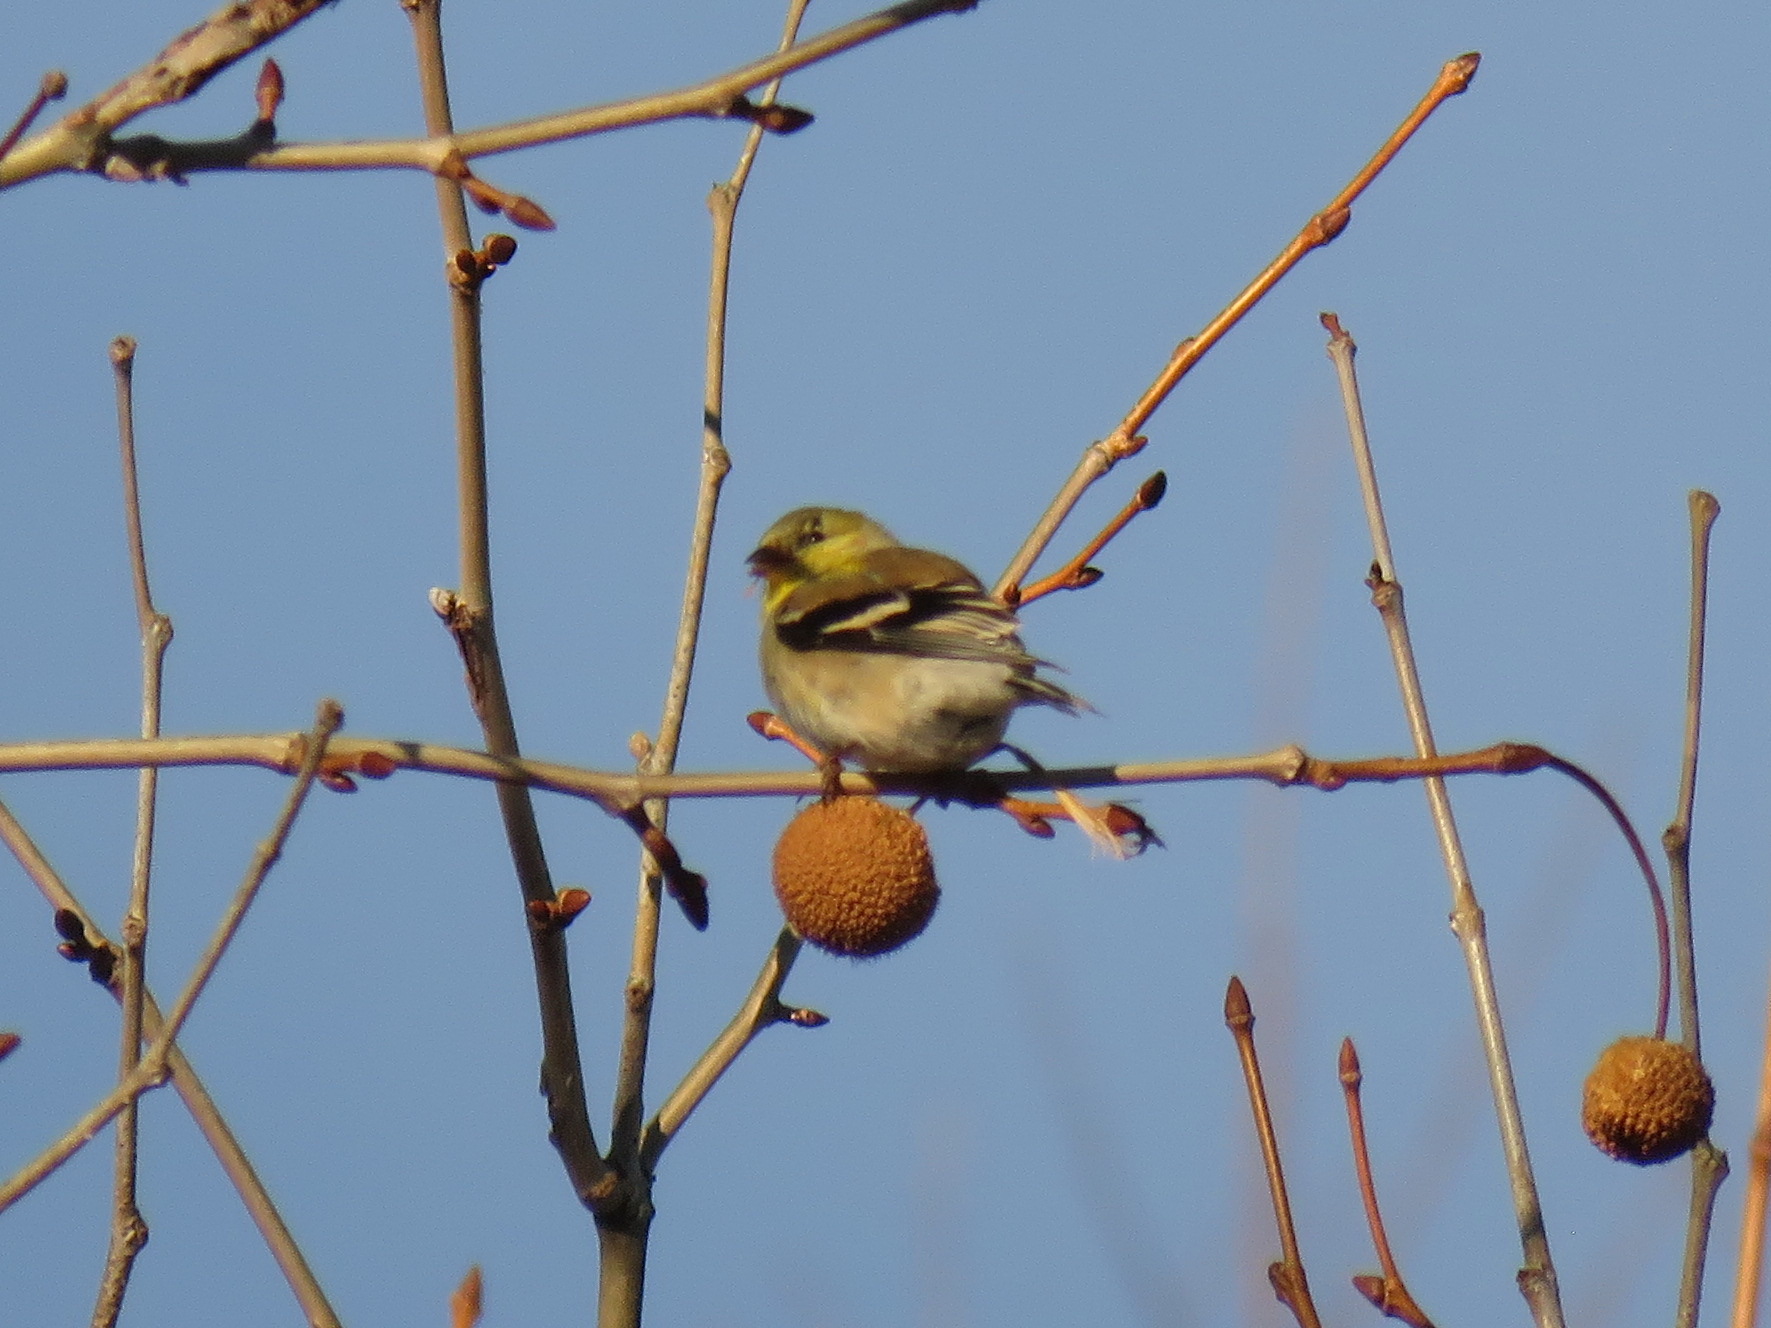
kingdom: Animalia
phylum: Chordata
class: Aves
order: Passeriformes
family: Fringillidae
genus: Spinus
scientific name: Spinus tristis
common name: American goldfinch
